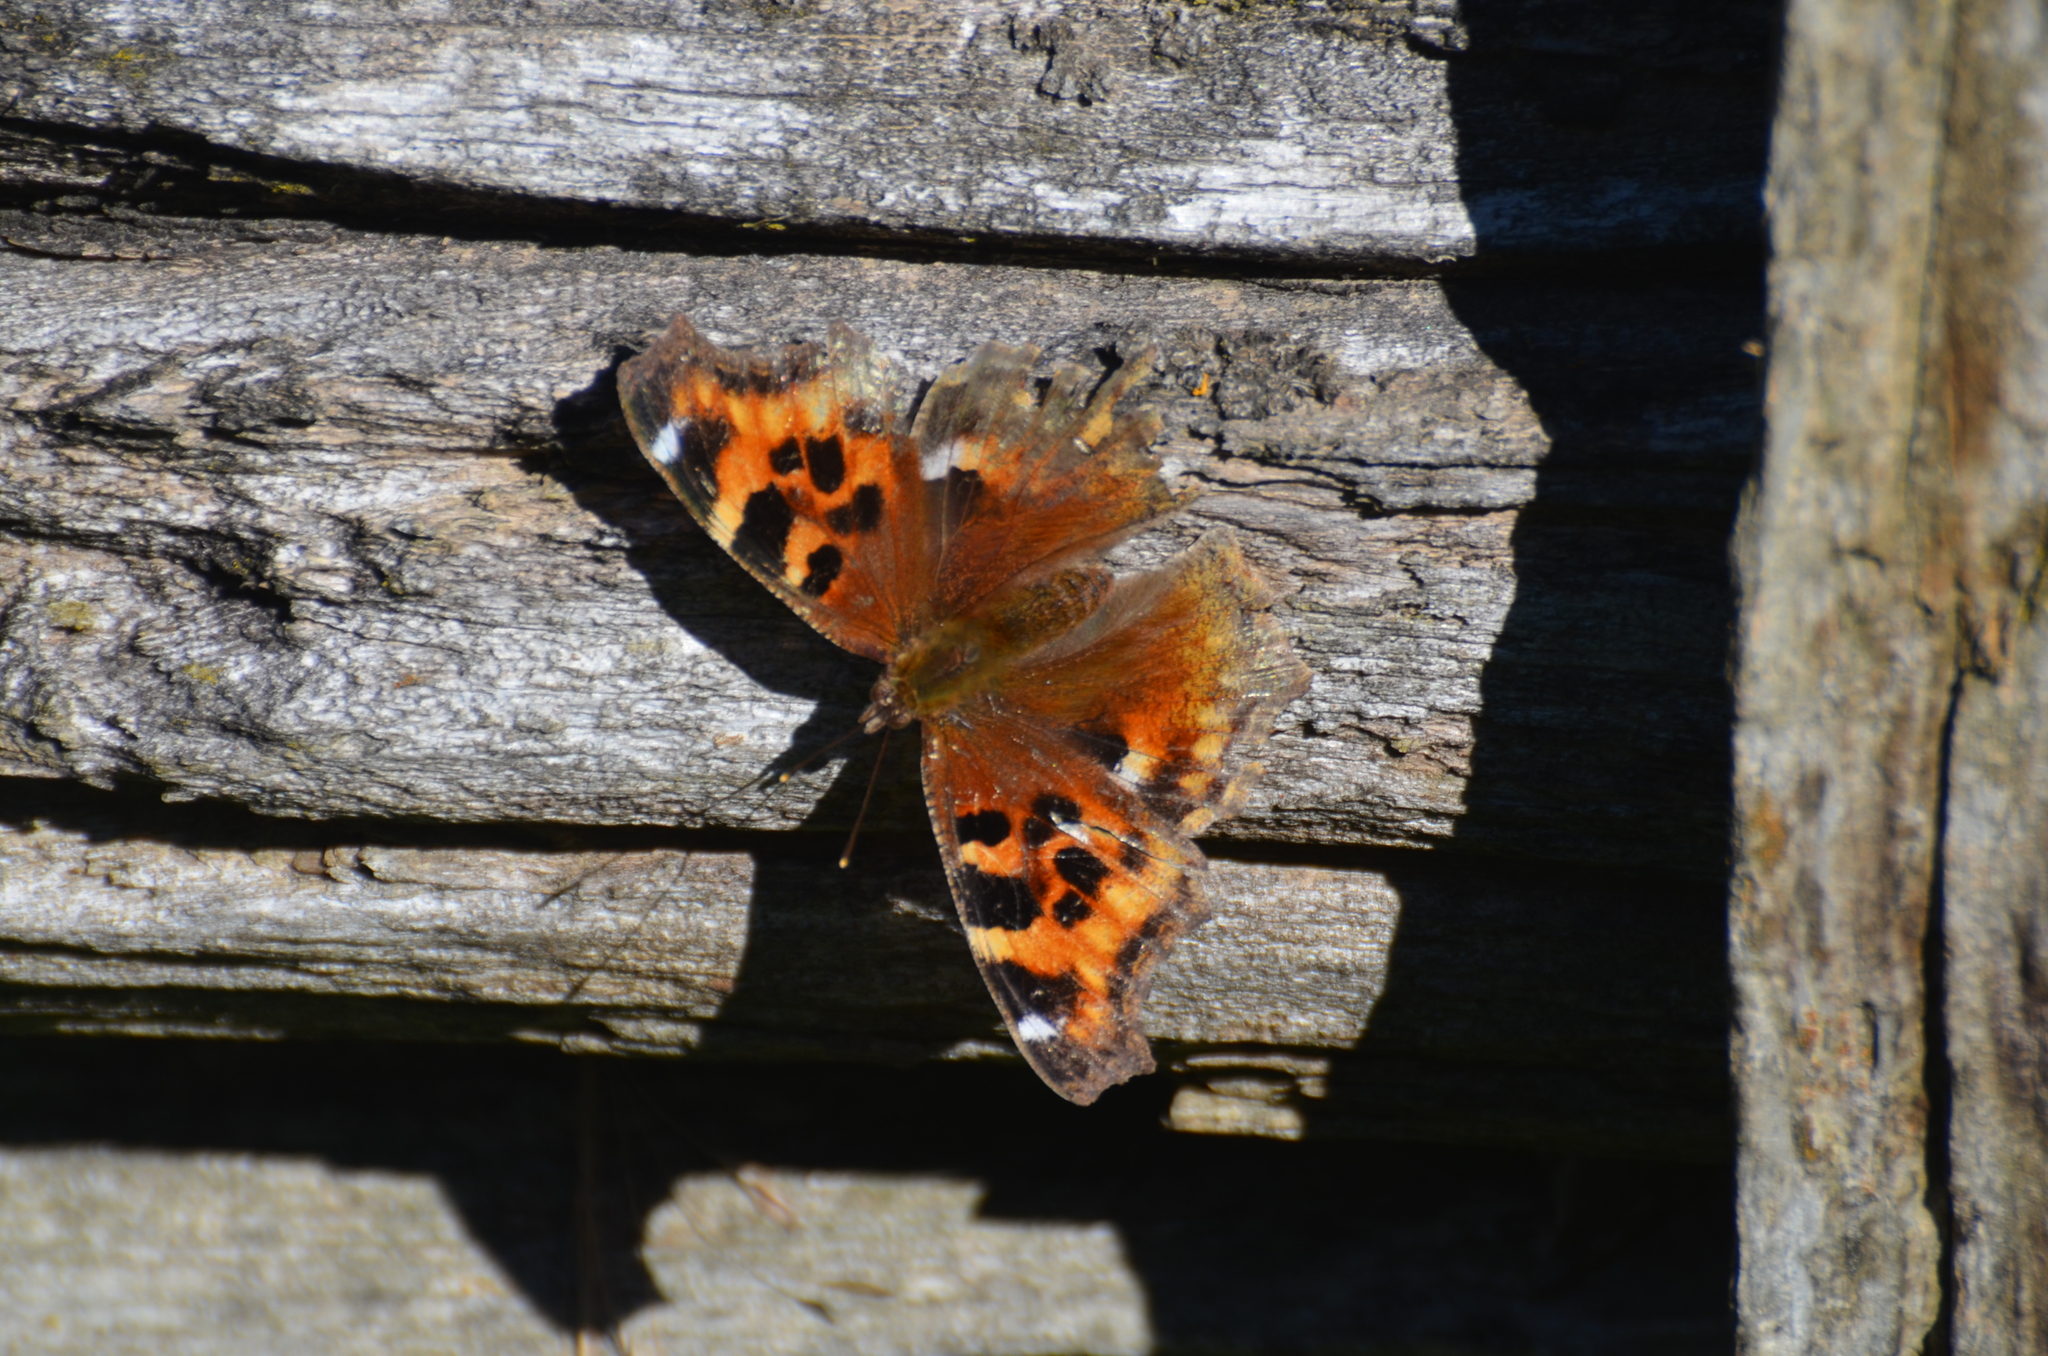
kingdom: Animalia
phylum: Arthropoda
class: Insecta
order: Lepidoptera
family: Nymphalidae
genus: Polygonia
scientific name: Polygonia vaualbum
